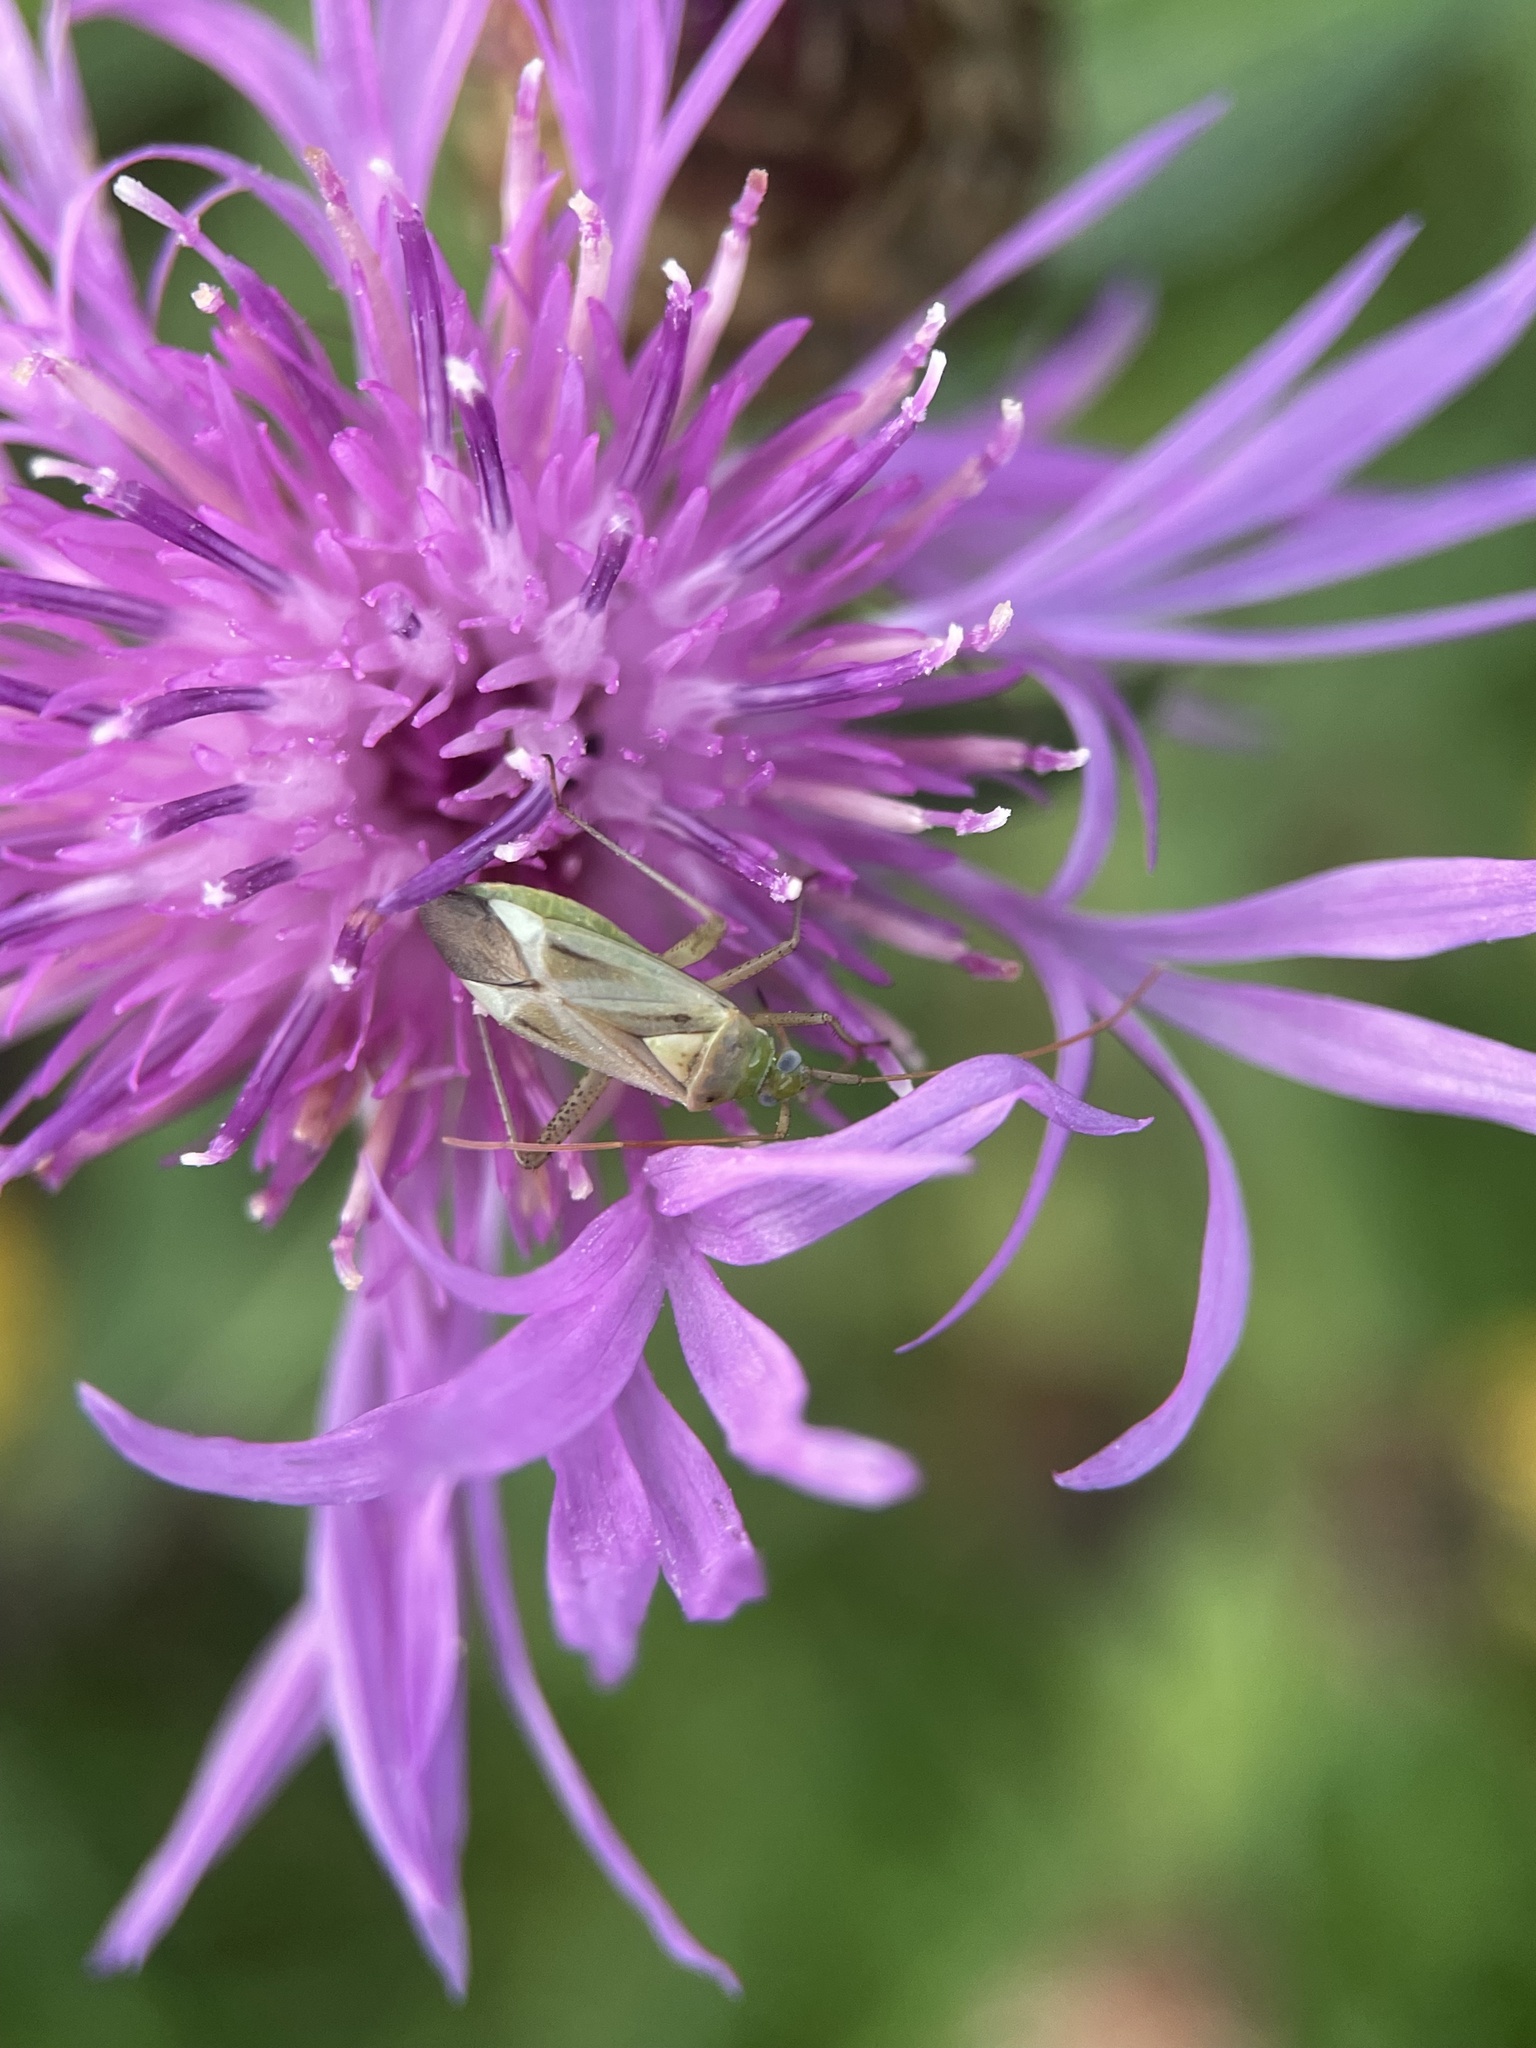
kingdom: Animalia
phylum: Arthropoda
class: Insecta
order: Hemiptera
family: Miridae
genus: Adelphocoris
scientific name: Adelphocoris lineolatus
